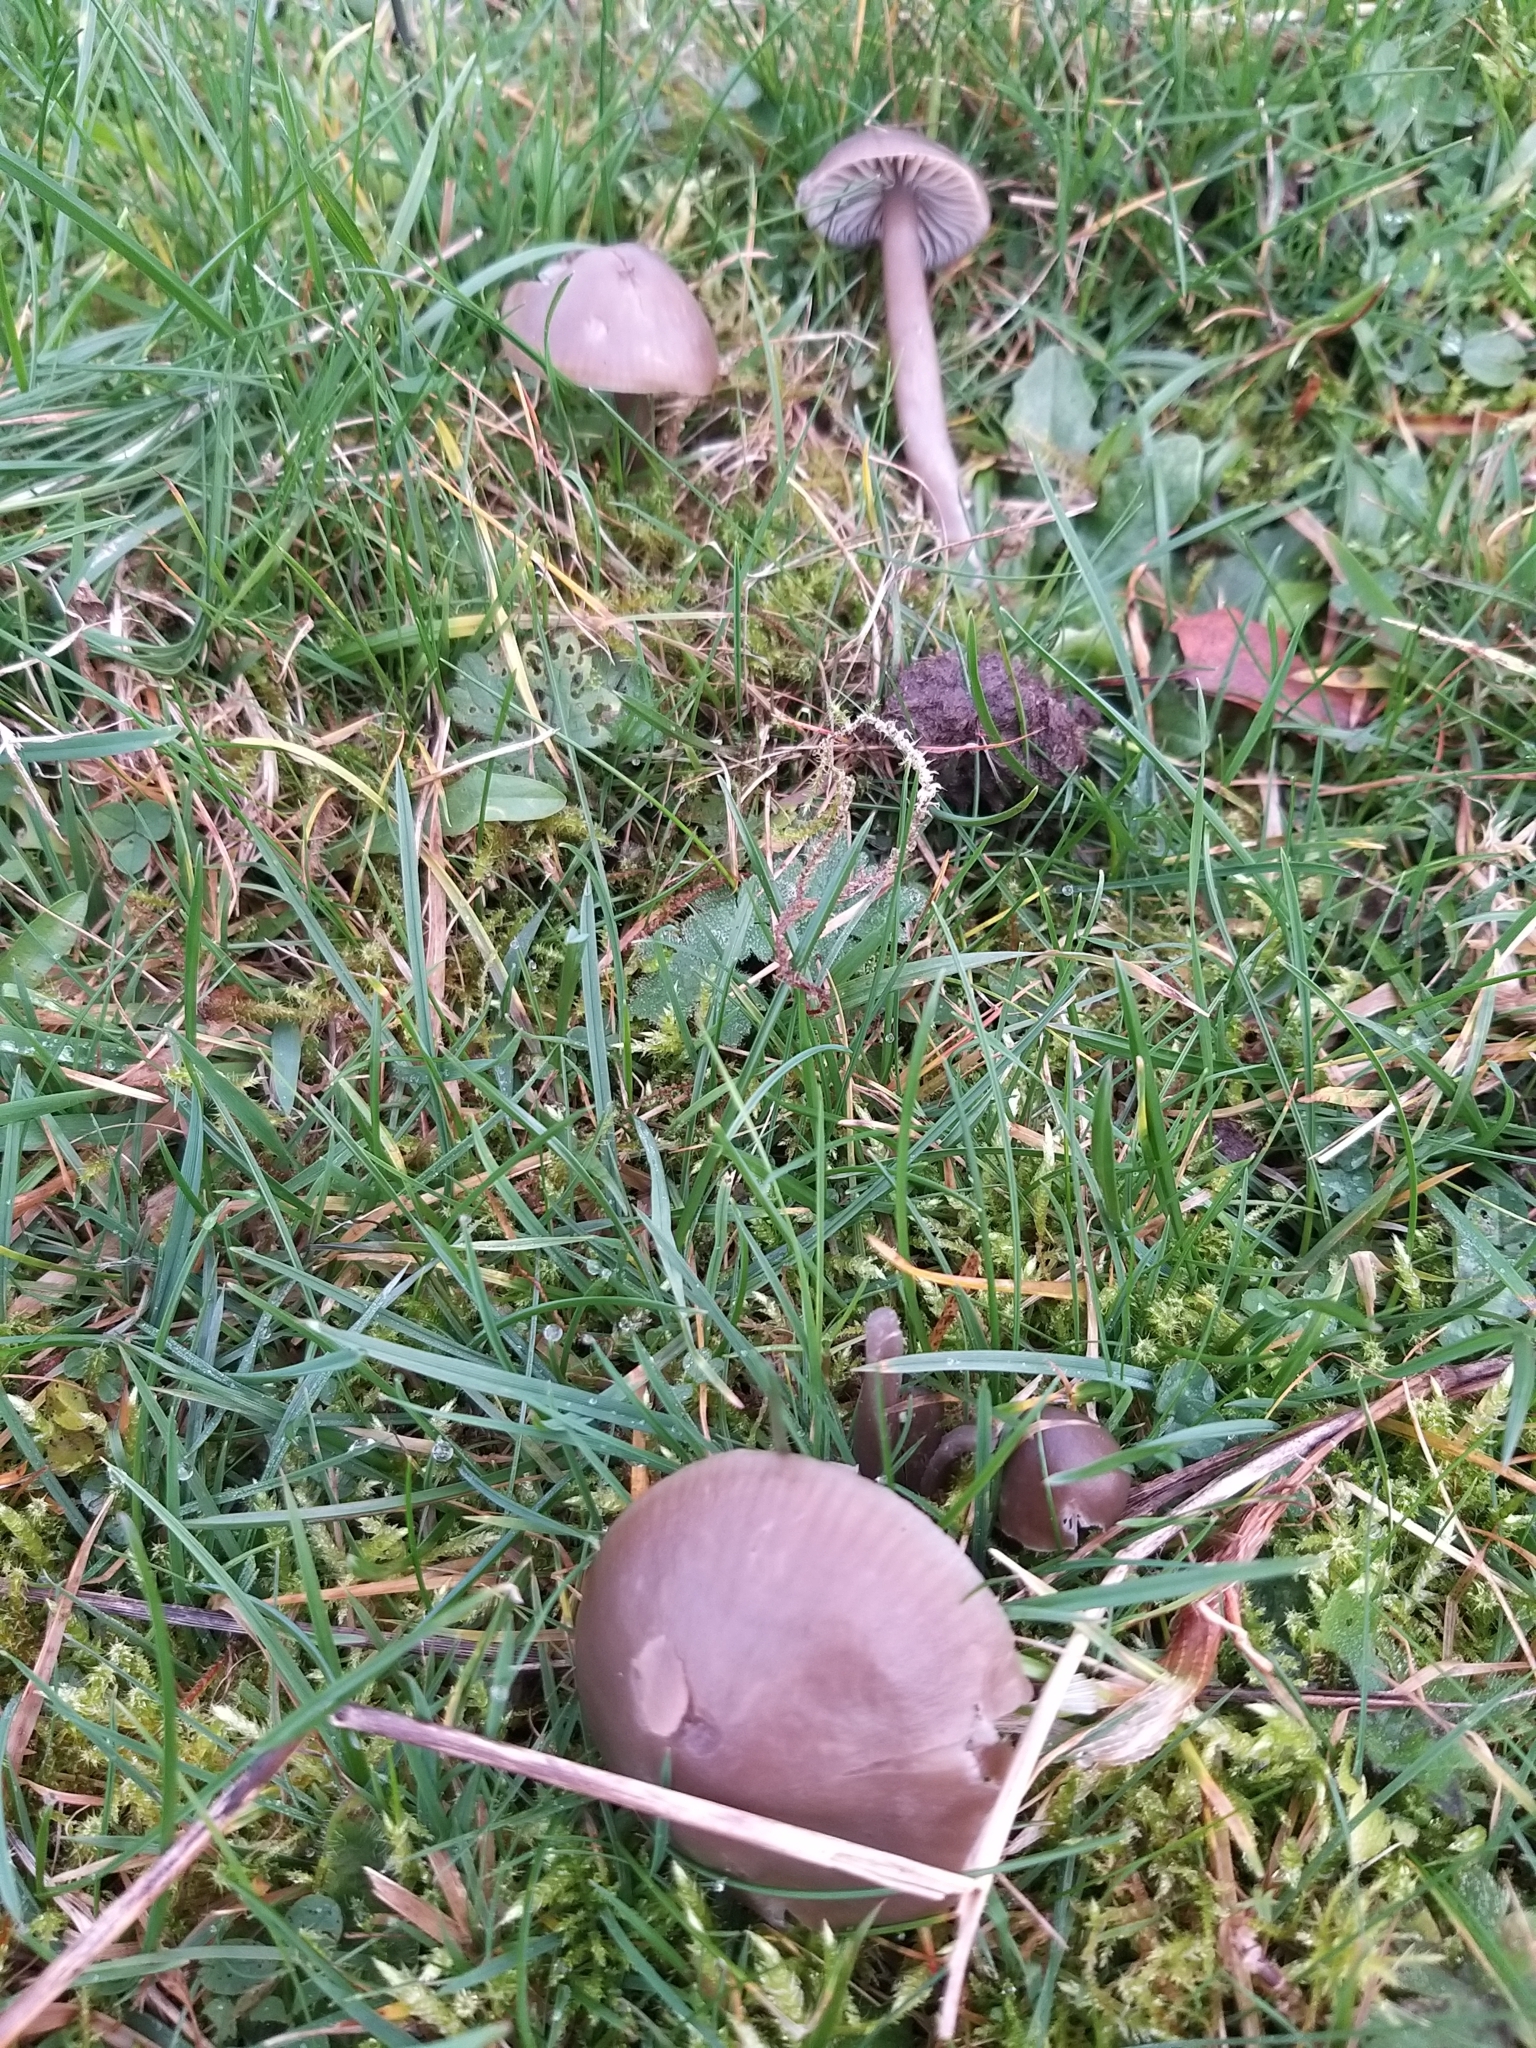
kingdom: Fungi
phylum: Basidiomycota
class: Agaricomycetes
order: Agaricales
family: Hygrophoraceae
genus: Gliophorus
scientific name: Gliophorus irrigatus
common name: Slimy waxcap
